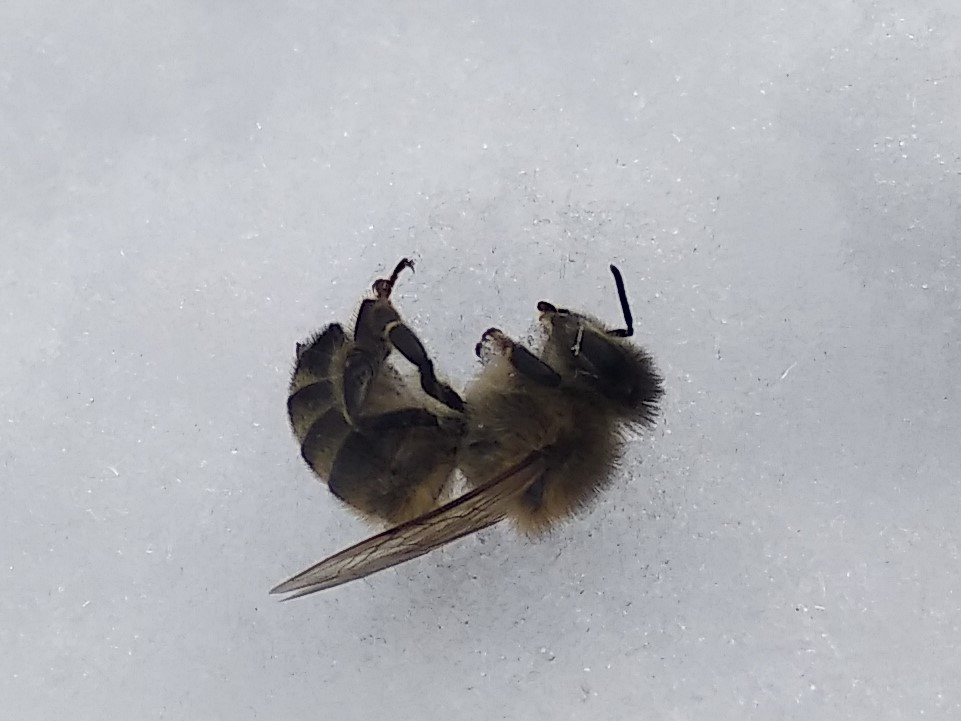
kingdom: Animalia
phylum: Arthropoda
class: Insecta
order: Hymenoptera
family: Apidae
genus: Apis
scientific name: Apis mellifera
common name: Honey bee
